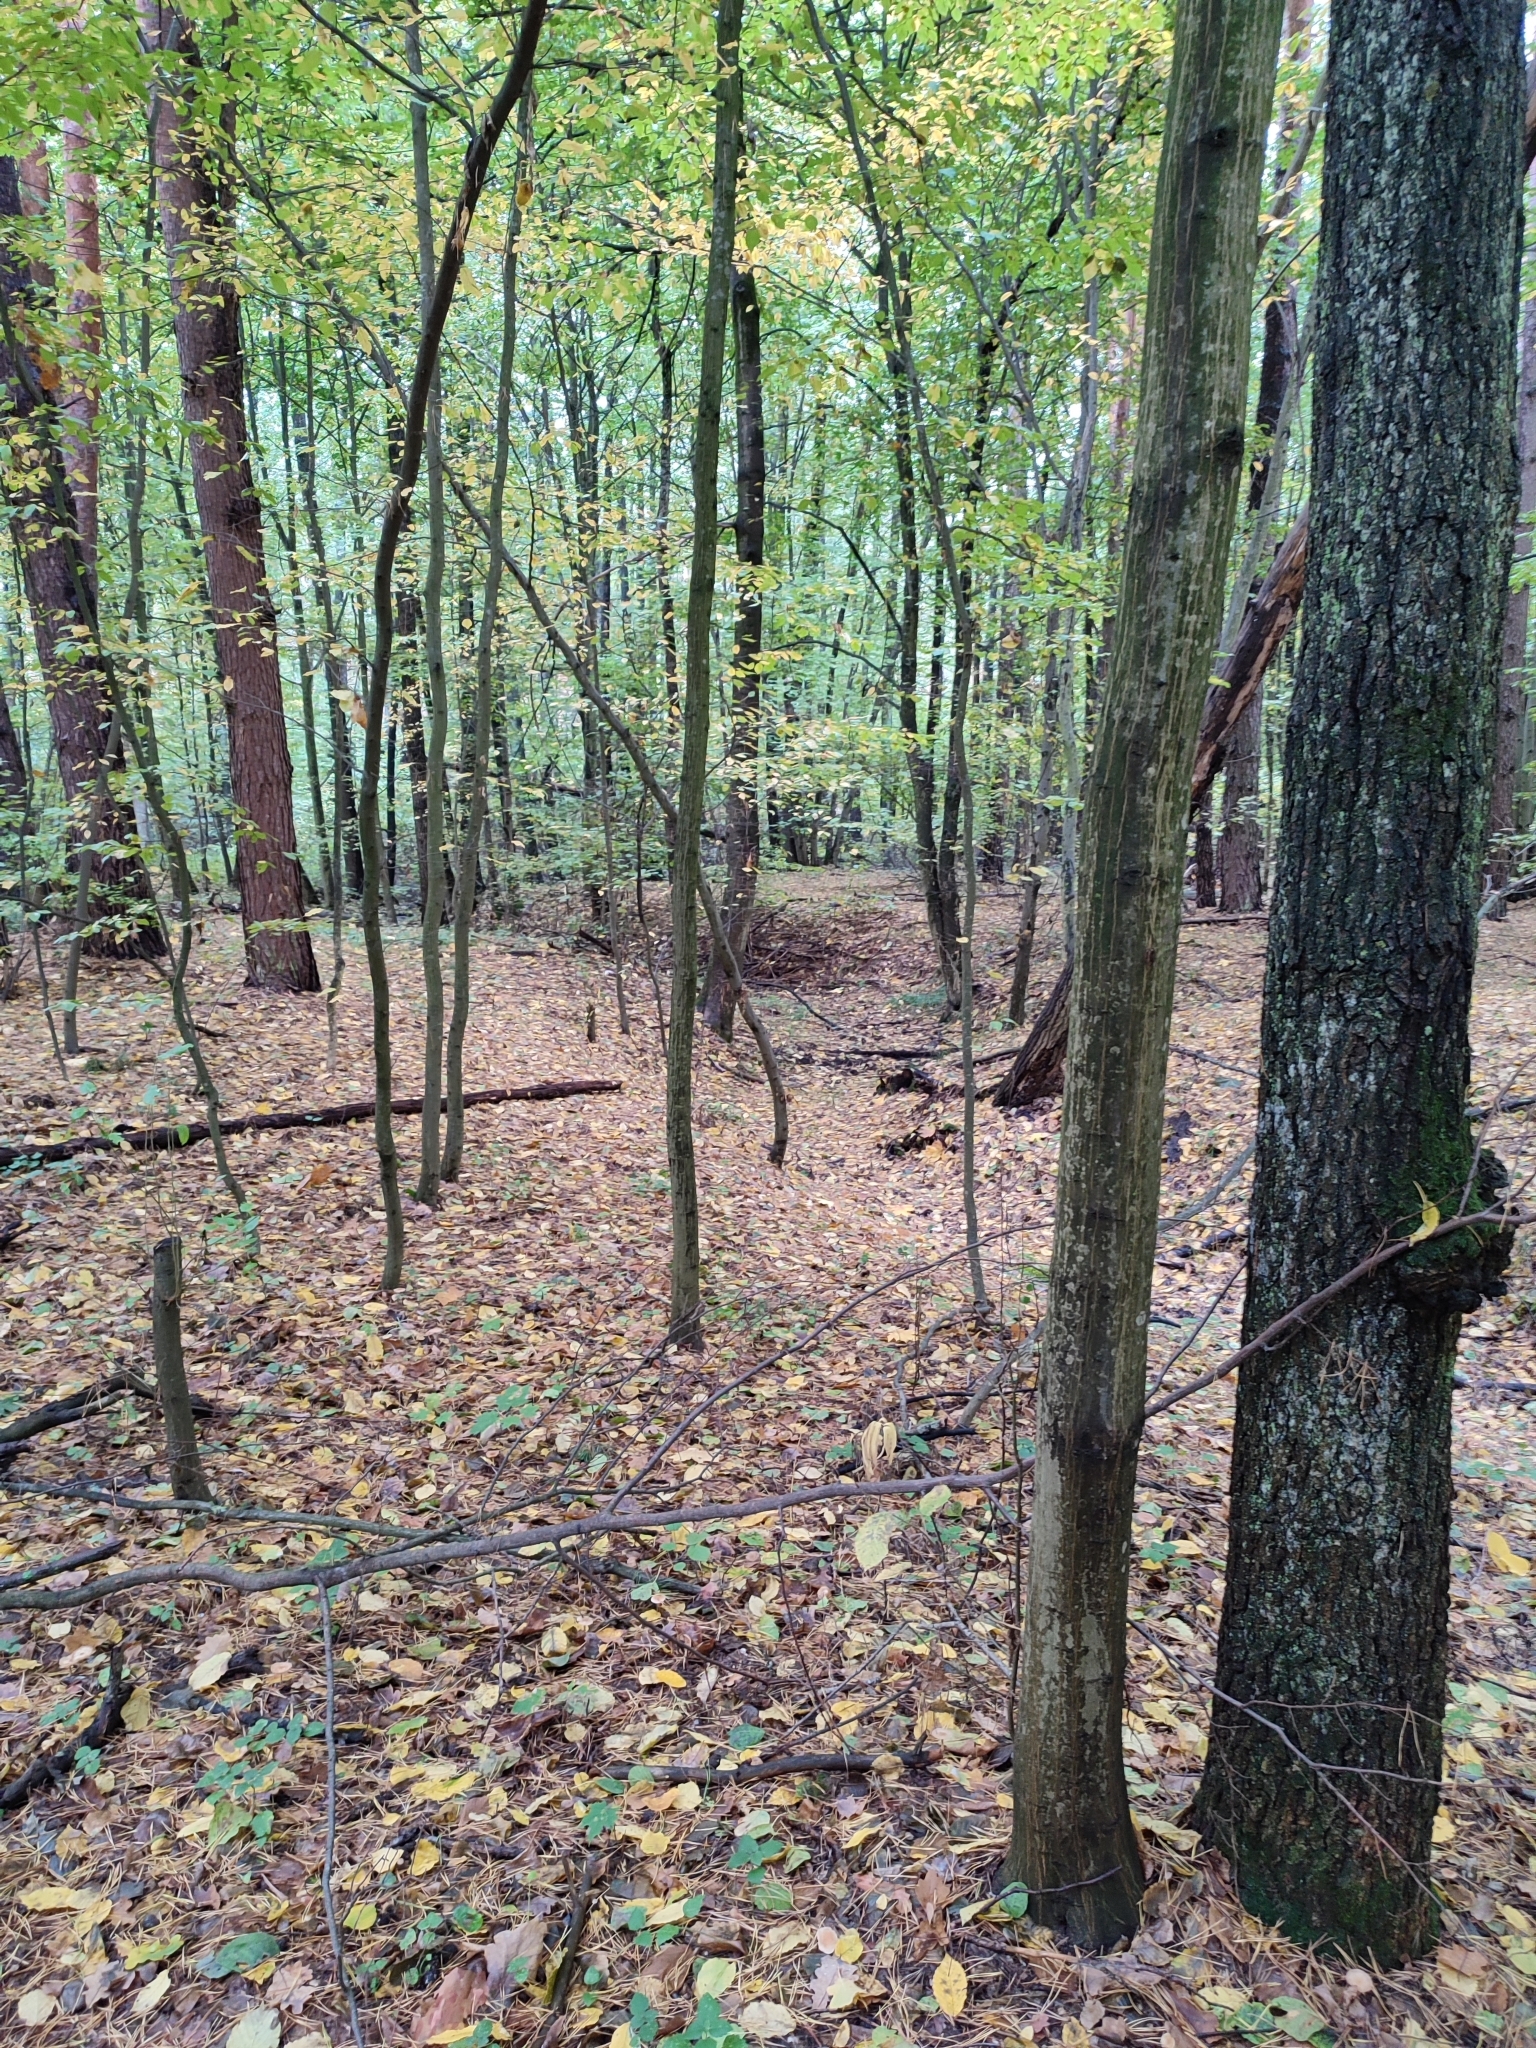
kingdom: Plantae
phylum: Tracheophyta
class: Magnoliopsida
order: Fagales
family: Betulaceae
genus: Carpinus
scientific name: Carpinus betulus
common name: Hornbeam
